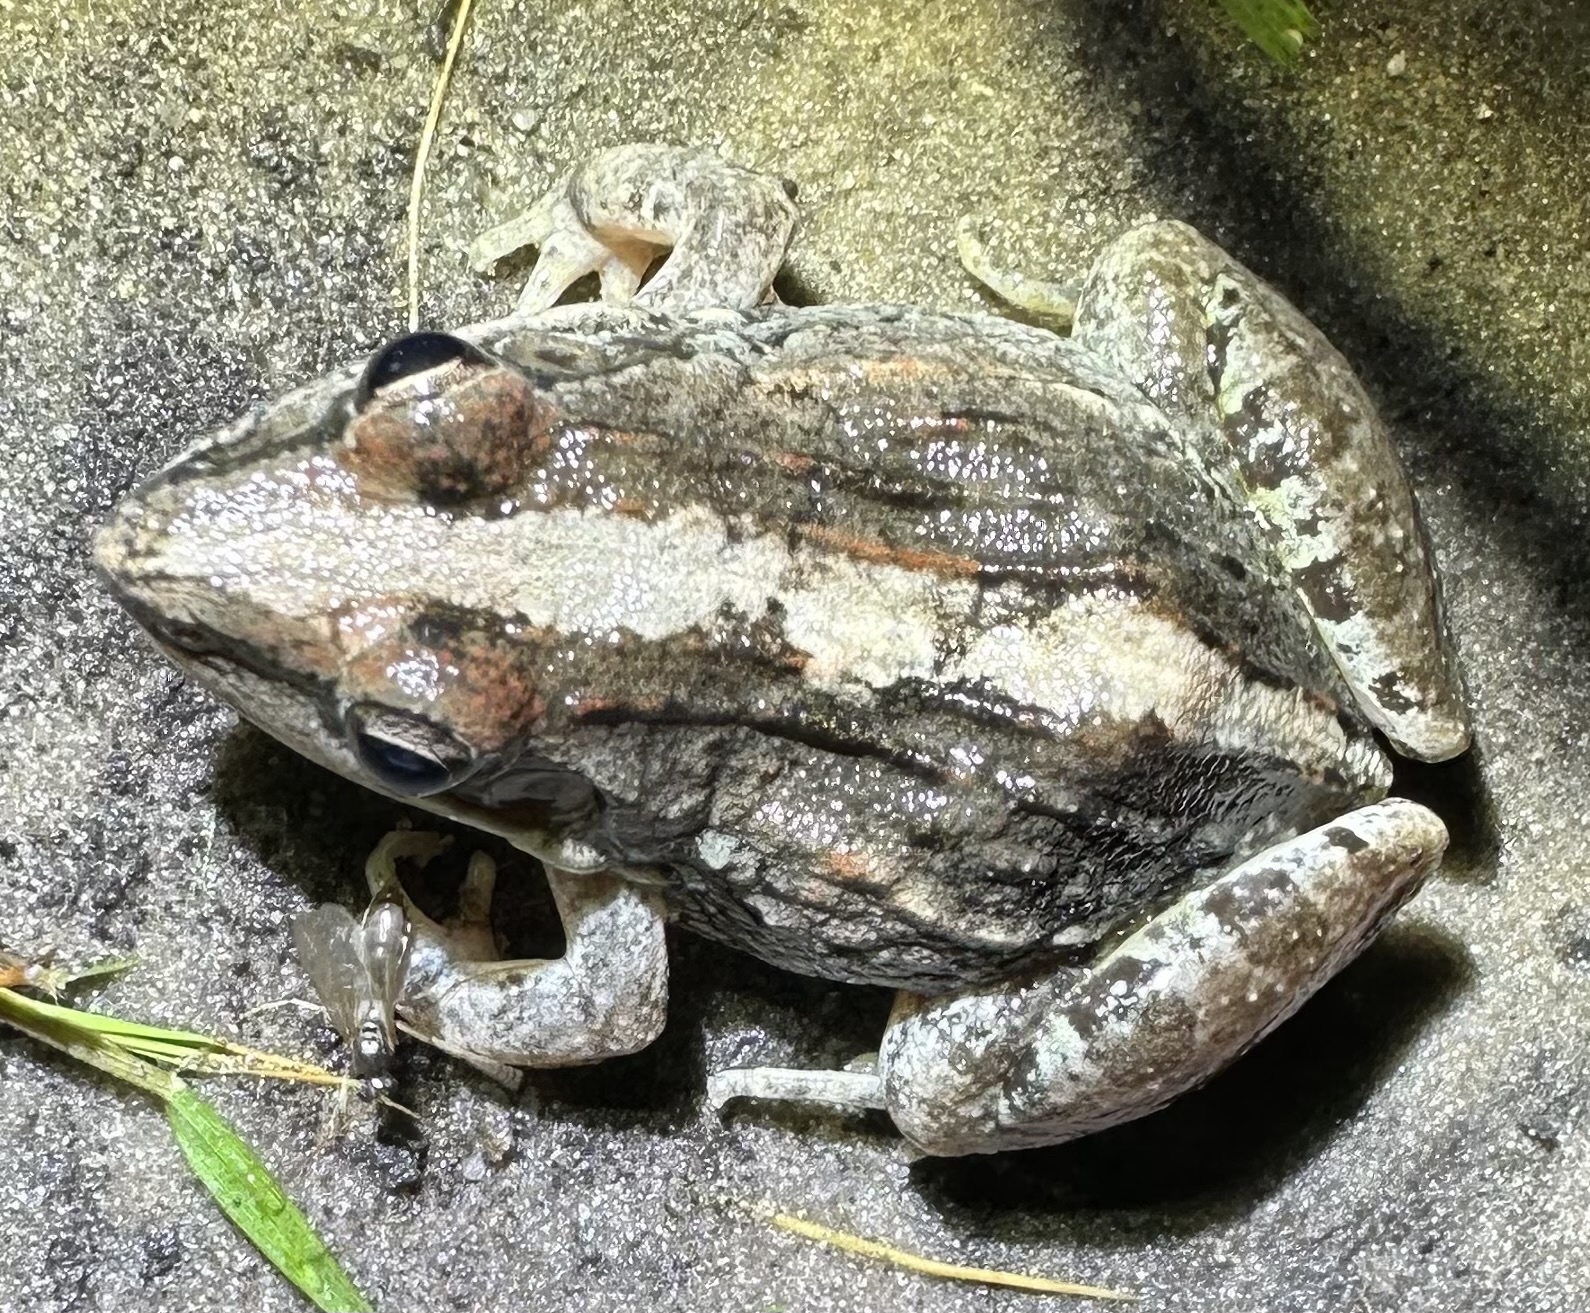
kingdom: Animalia
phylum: Chordata
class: Amphibia
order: Anura
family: Ptychadenidae
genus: Ptychadena
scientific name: Ptychadena mossambica
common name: Mozambique ridged frog
